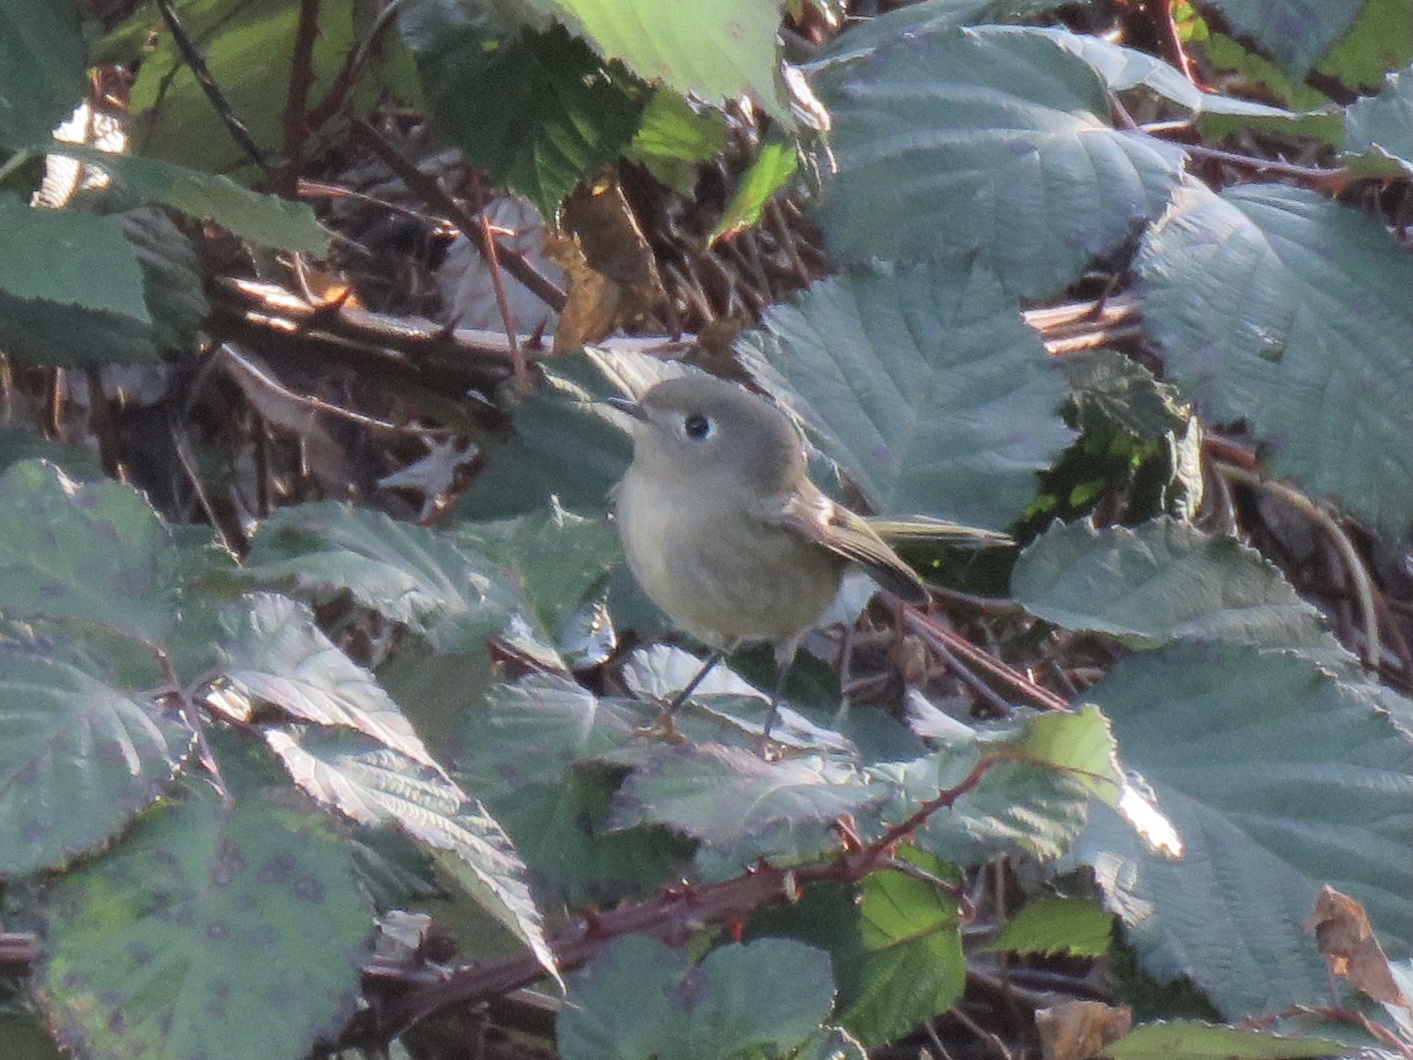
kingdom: Animalia
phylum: Chordata
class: Aves
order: Passeriformes
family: Regulidae
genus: Regulus
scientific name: Regulus calendula
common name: Ruby-crowned kinglet
